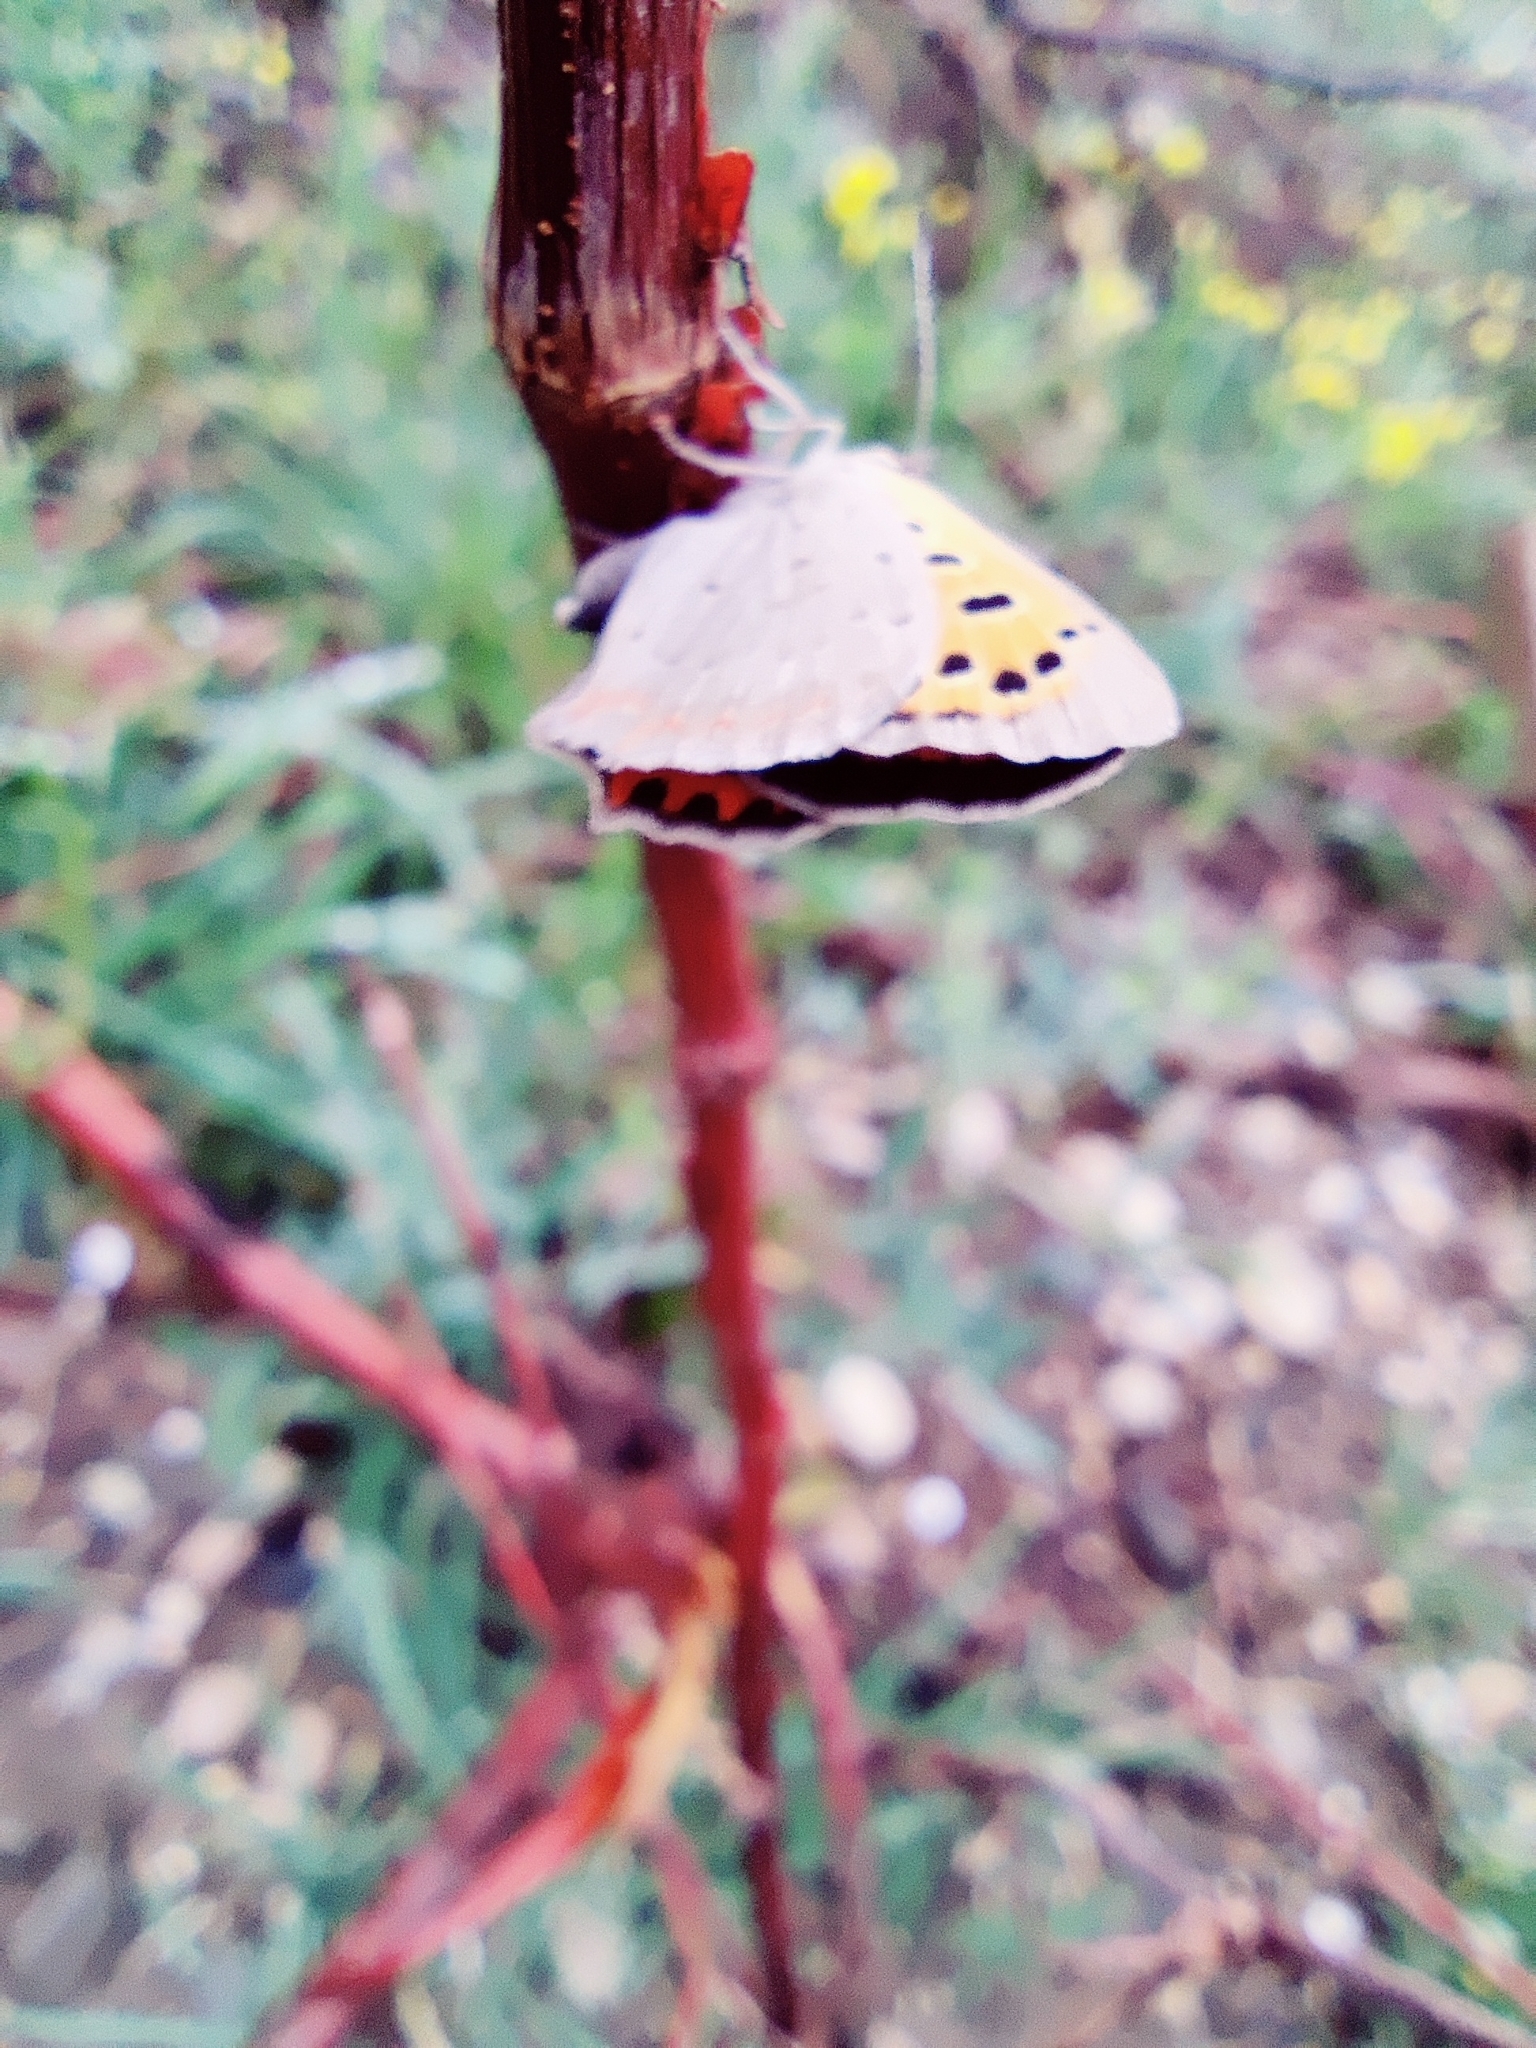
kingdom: Animalia
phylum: Arthropoda
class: Insecta
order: Lepidoptera
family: Lycaenidae
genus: Lycaena
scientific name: Lycaena phlaeas
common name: Small copper
